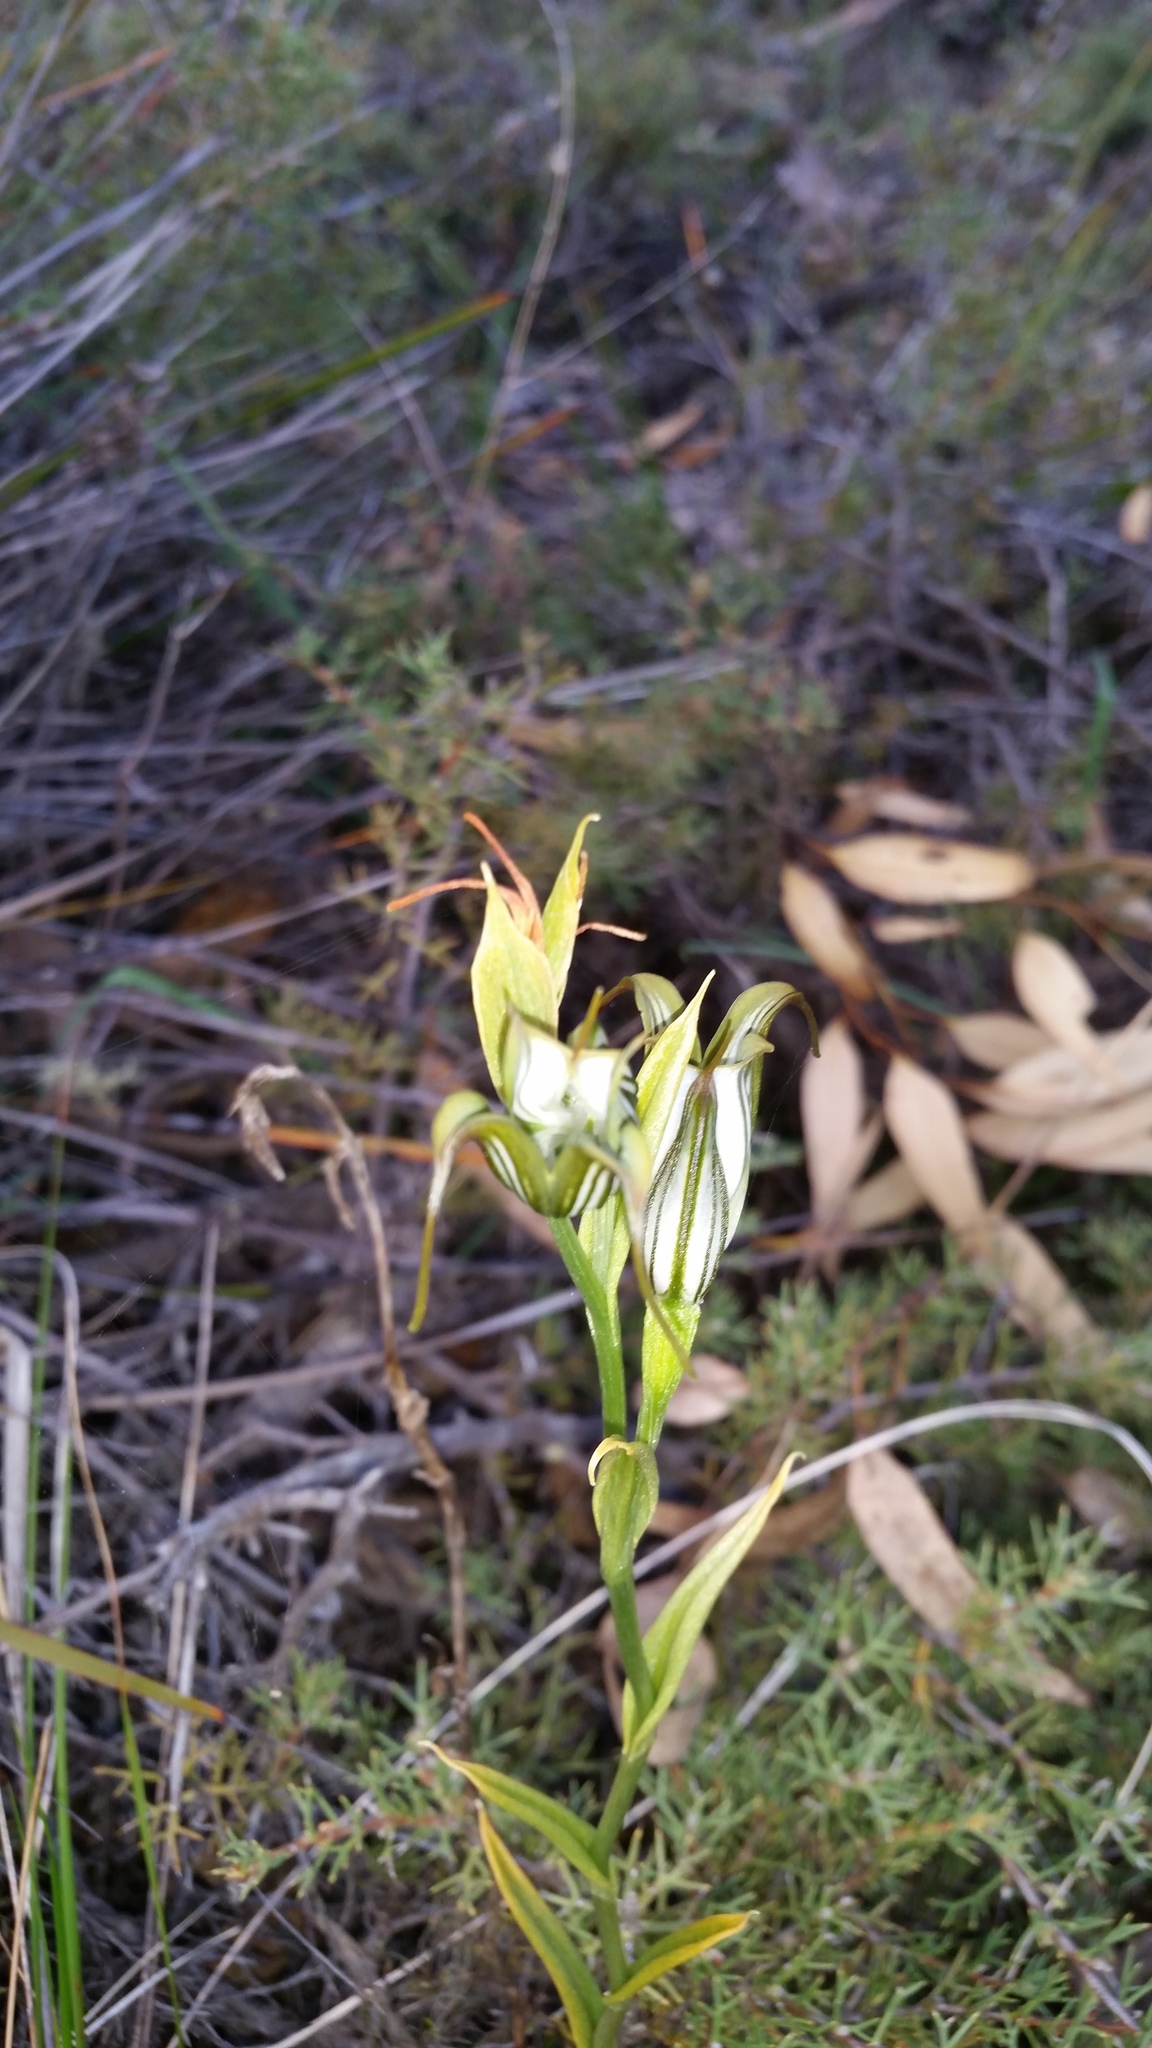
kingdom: Plantae
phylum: Tracheophyta
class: Liliopsida
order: Asparagales
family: Orchidaceae
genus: Pterostylis
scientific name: Pterostylis recurva
